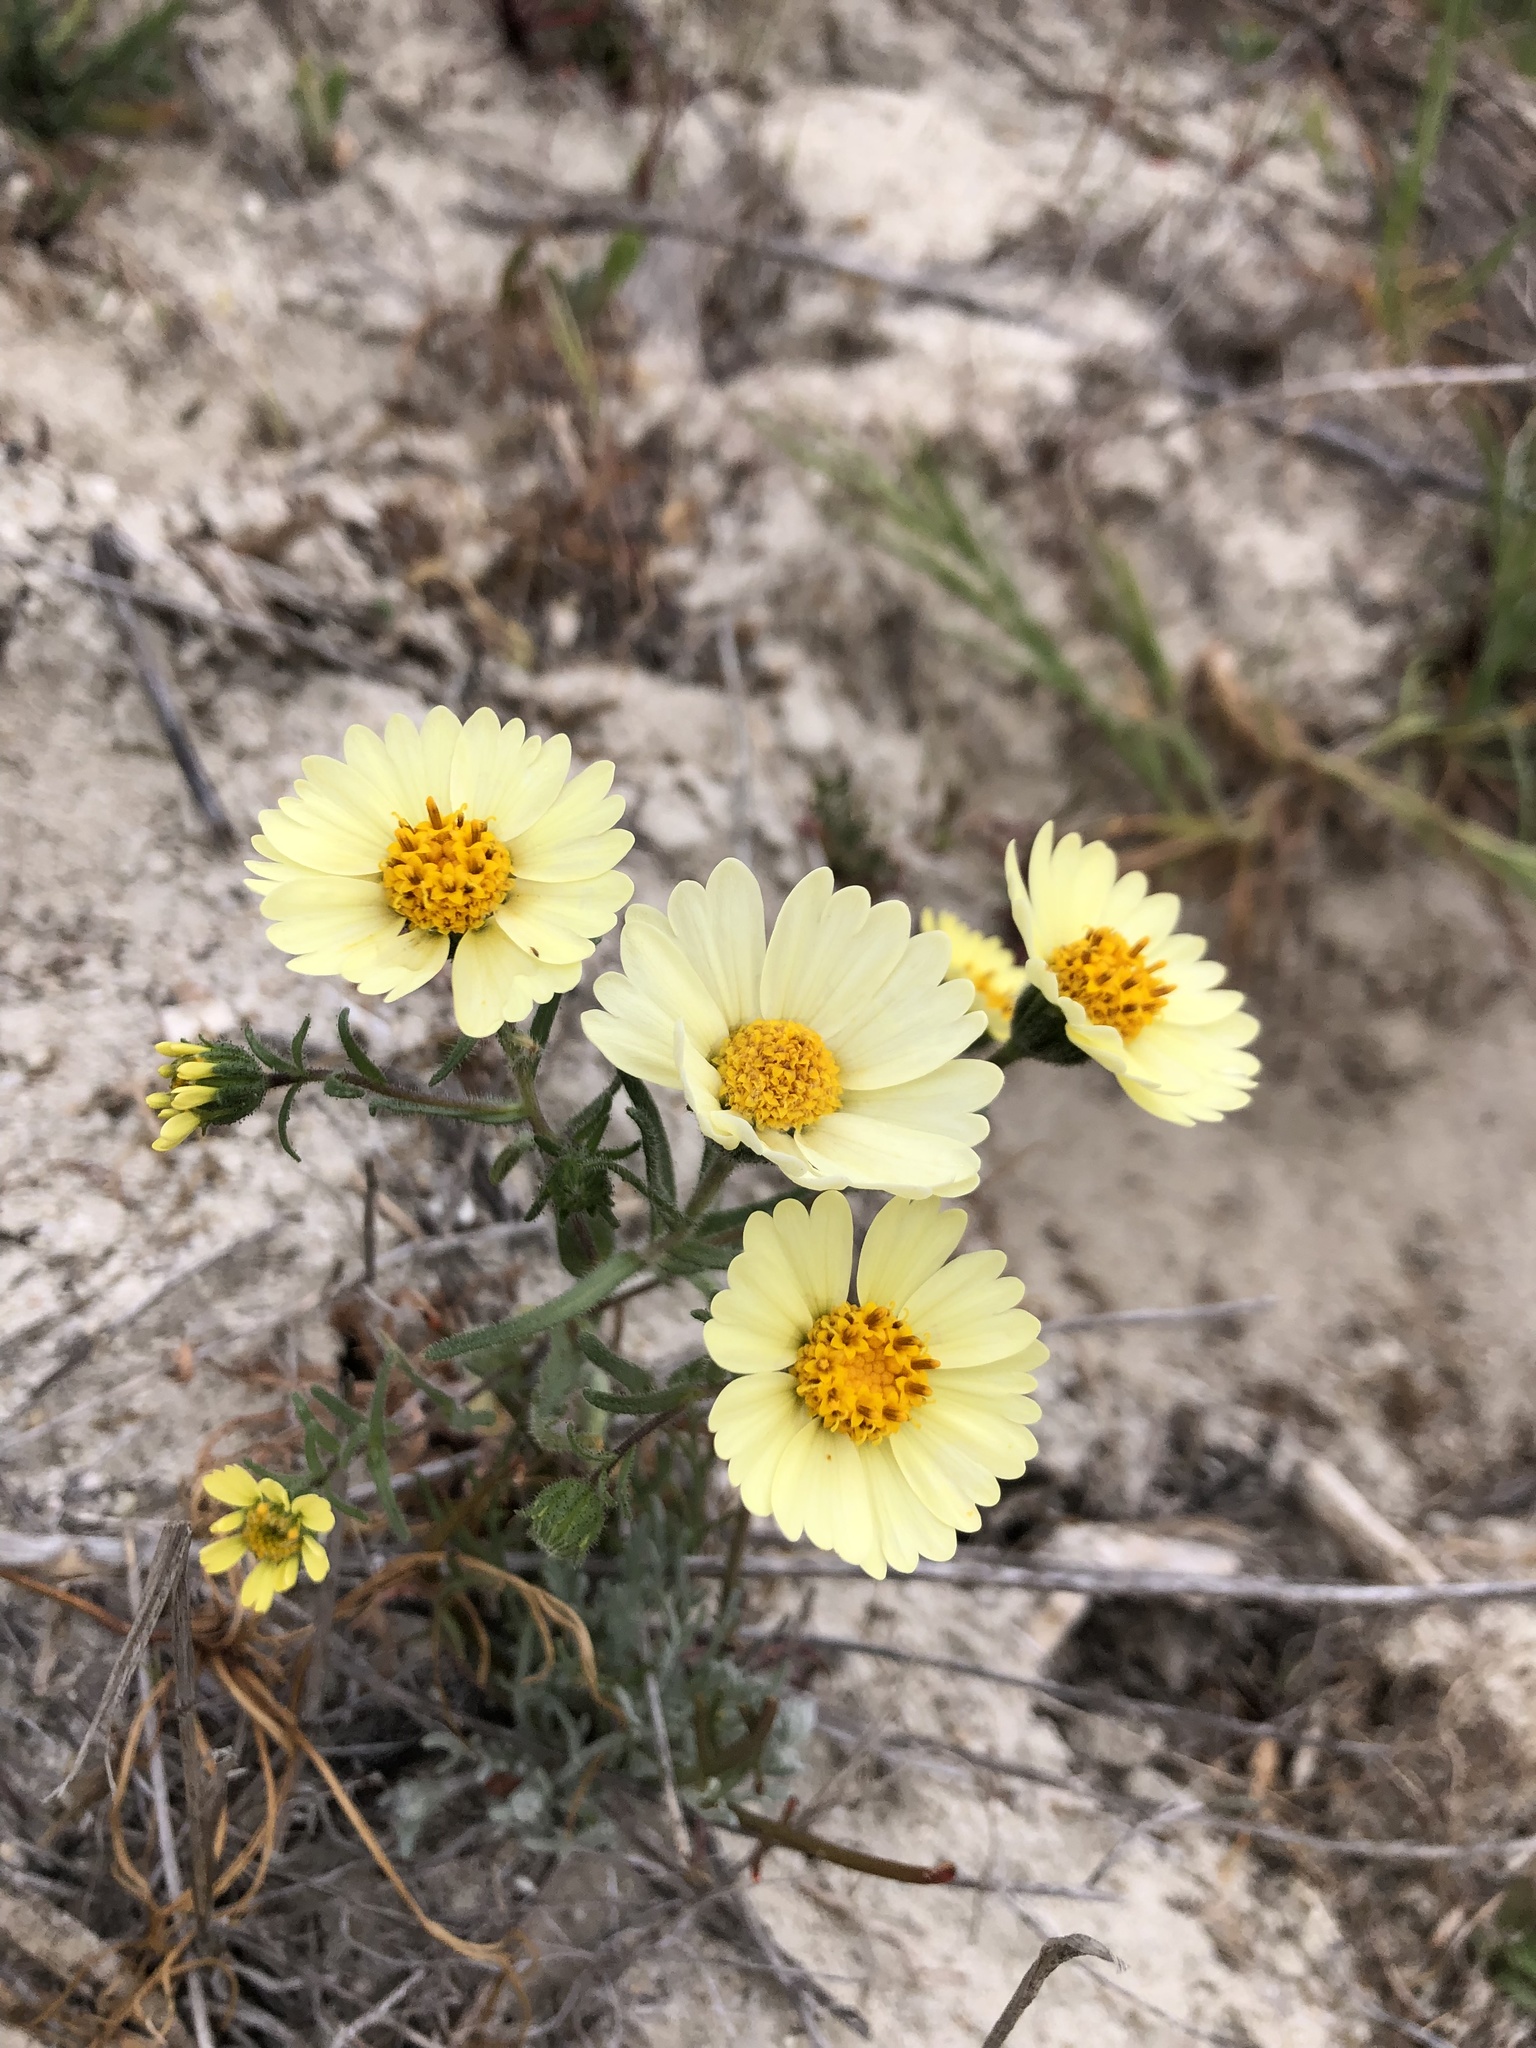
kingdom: Plantae
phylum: Tracheophyta
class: Magnoliopsida
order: Asterales
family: Asteraceae
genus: Layia
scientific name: Layia glandulosa
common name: White layia
